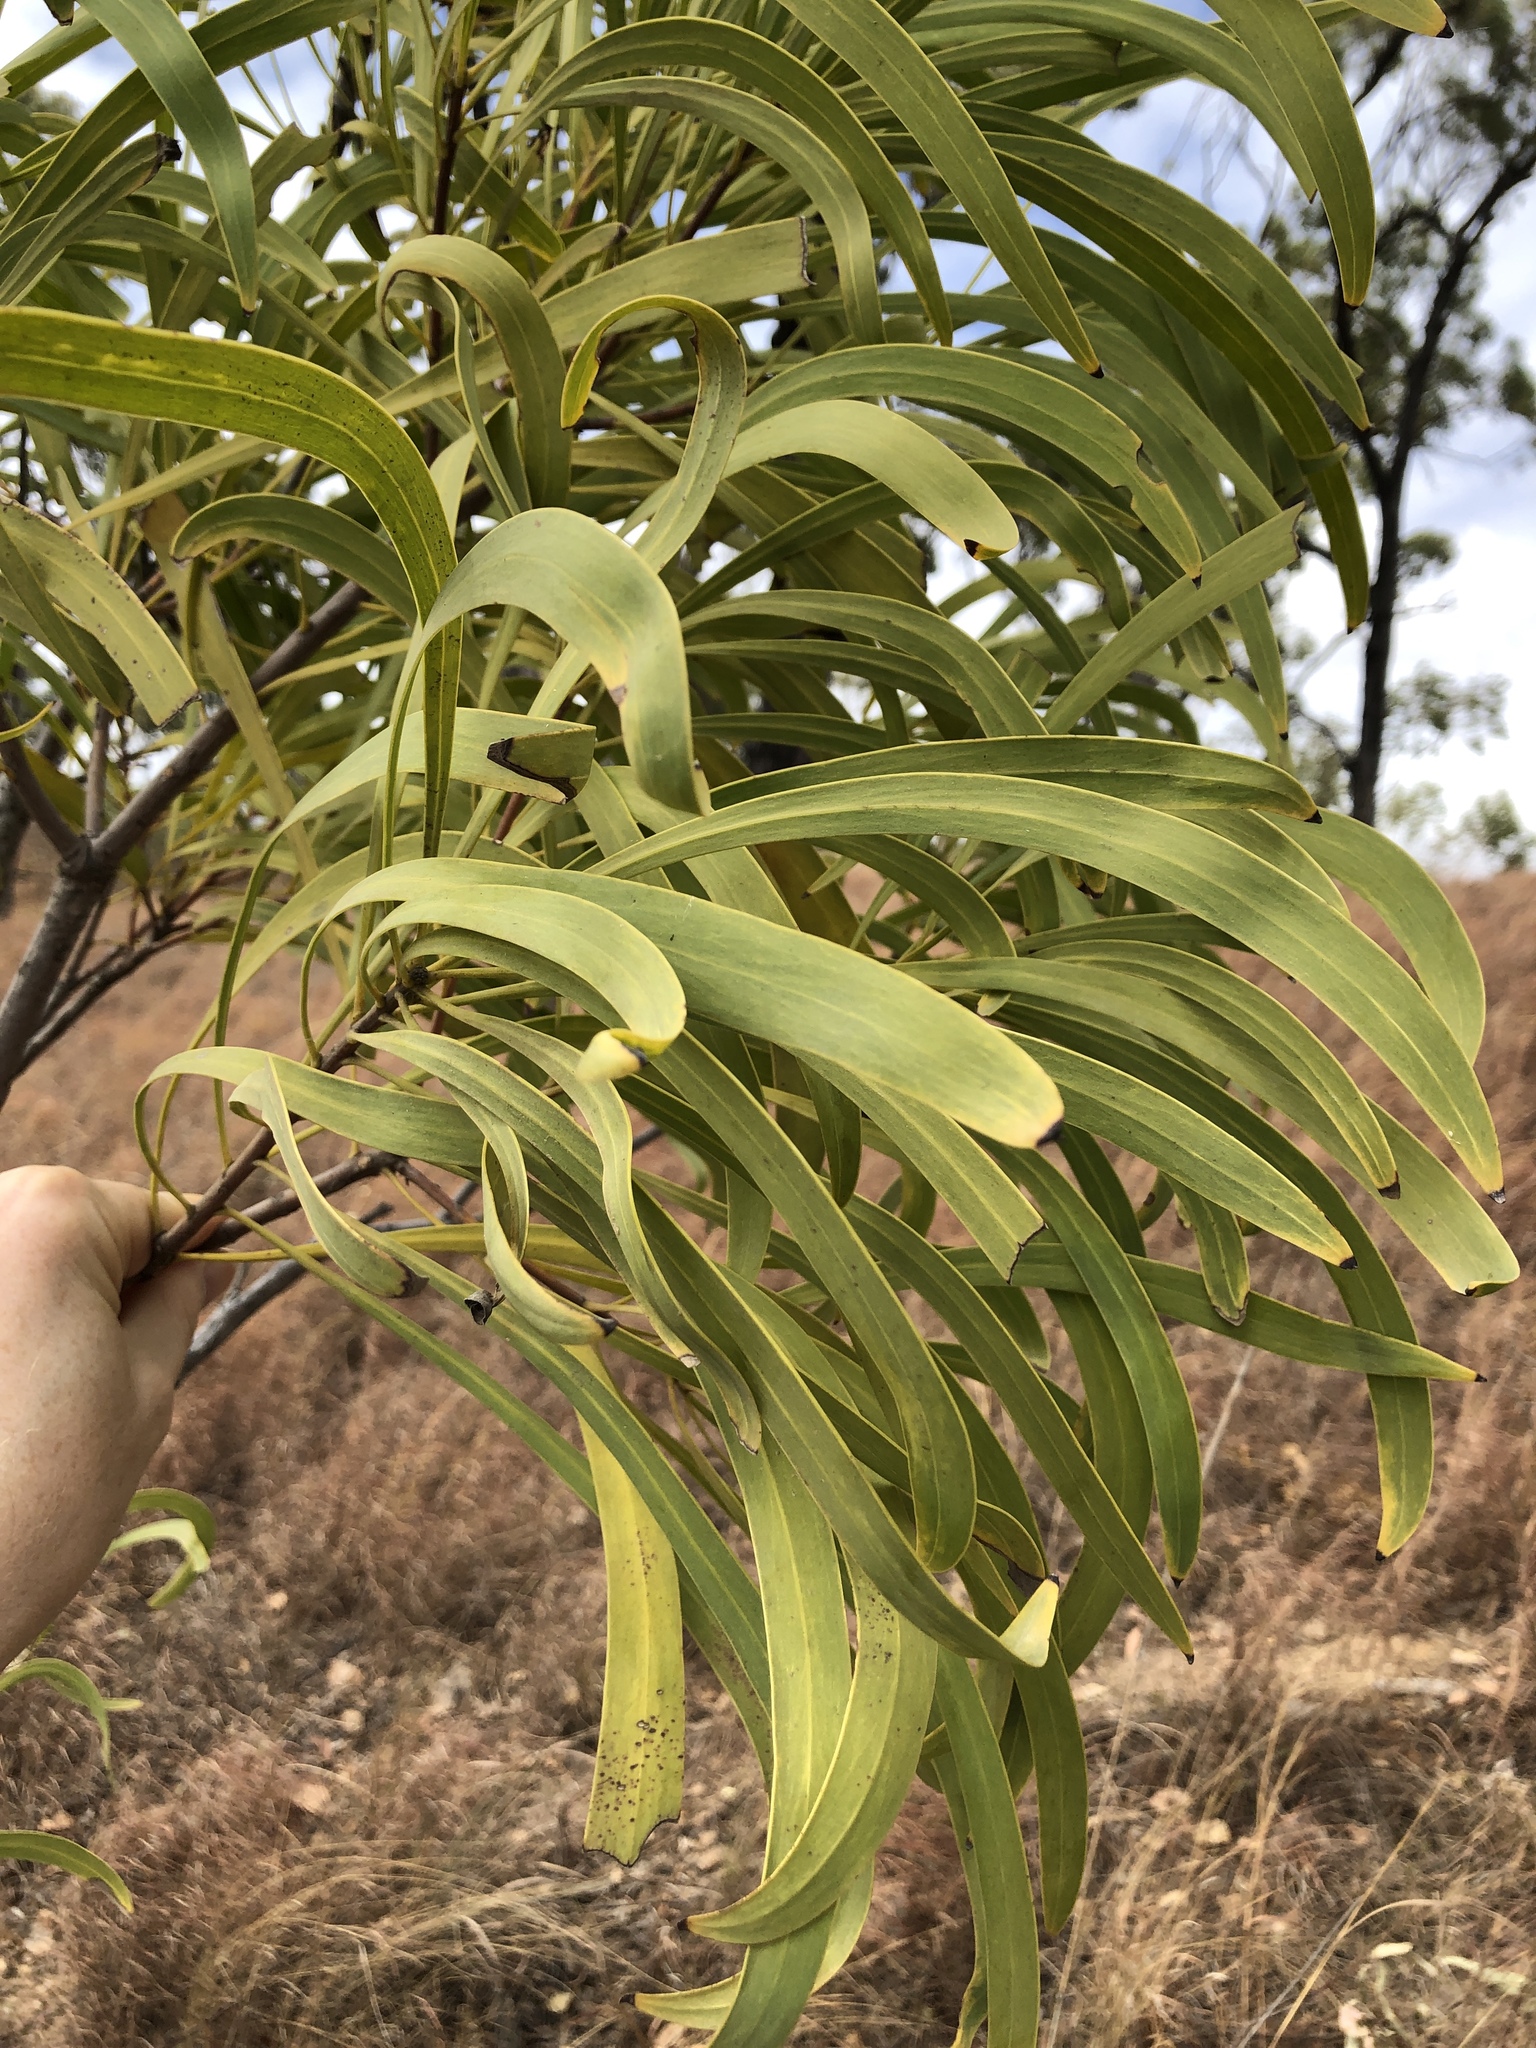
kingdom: Plantae
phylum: Tracheophyta
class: Magnoliopsida
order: Proteales
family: Proteaceae
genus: Persoonia
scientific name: Persoonia falcata
